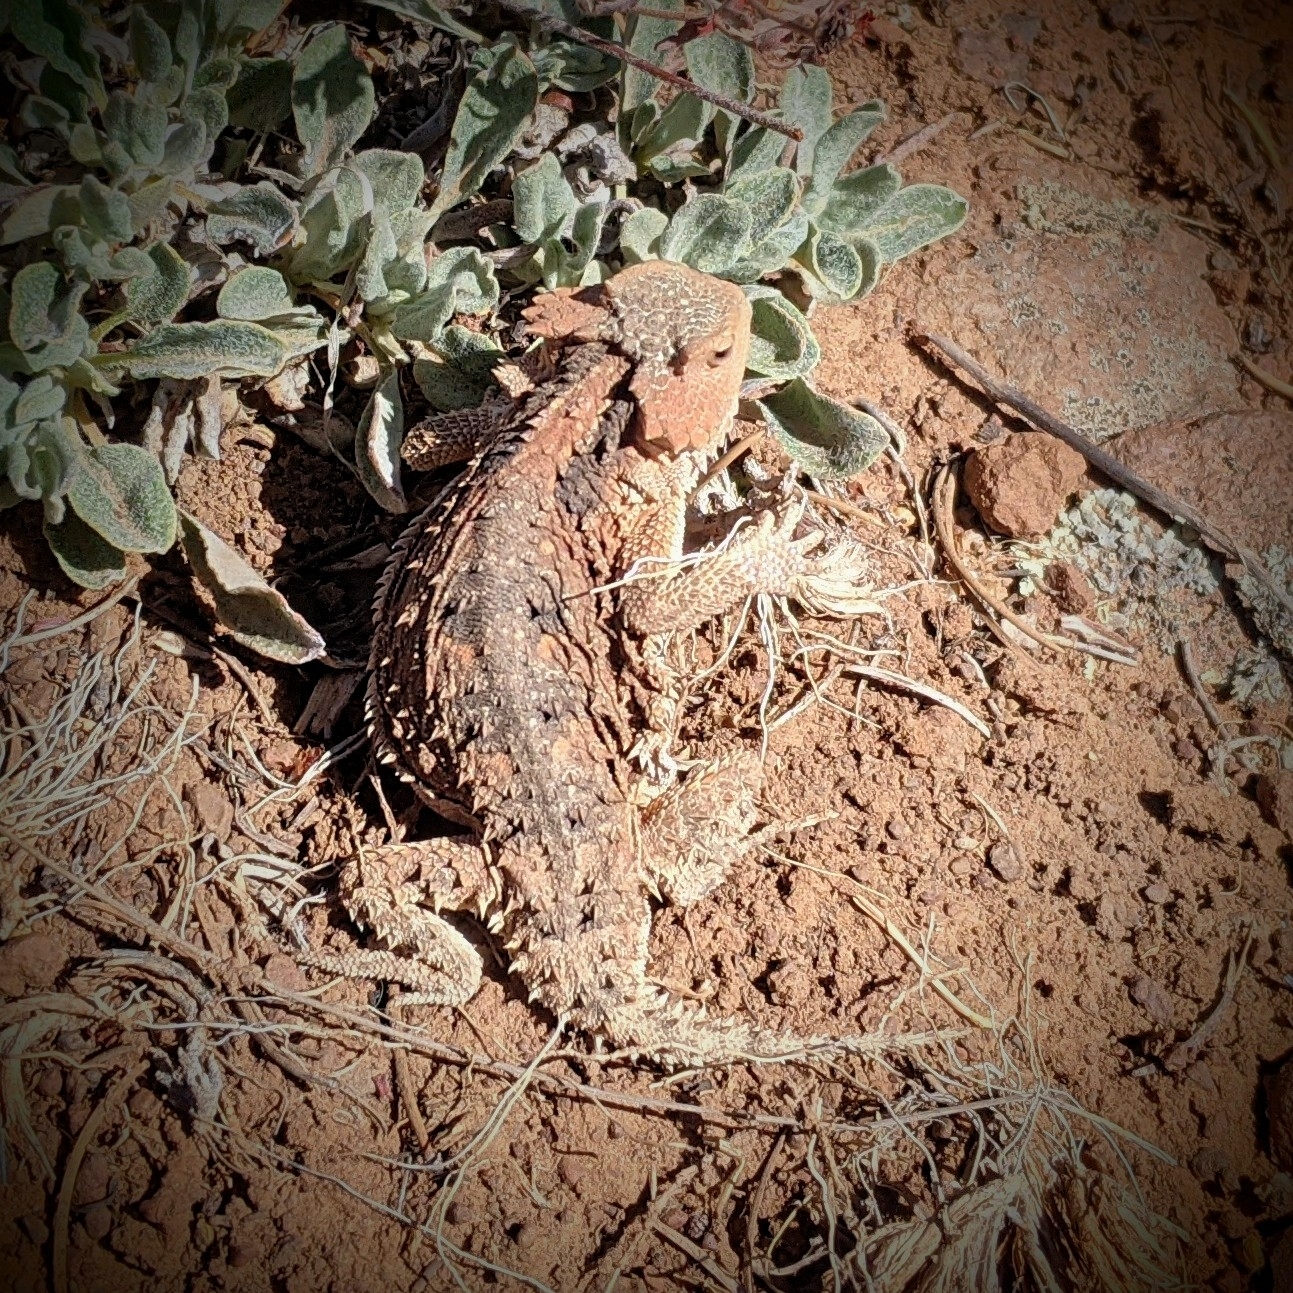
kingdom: Animalia
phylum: Chordata
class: Squamata
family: Phrynosomatidae
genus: Phrynosoma
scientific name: Phrynosoma hernandesi
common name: Greater short-horned lizard
